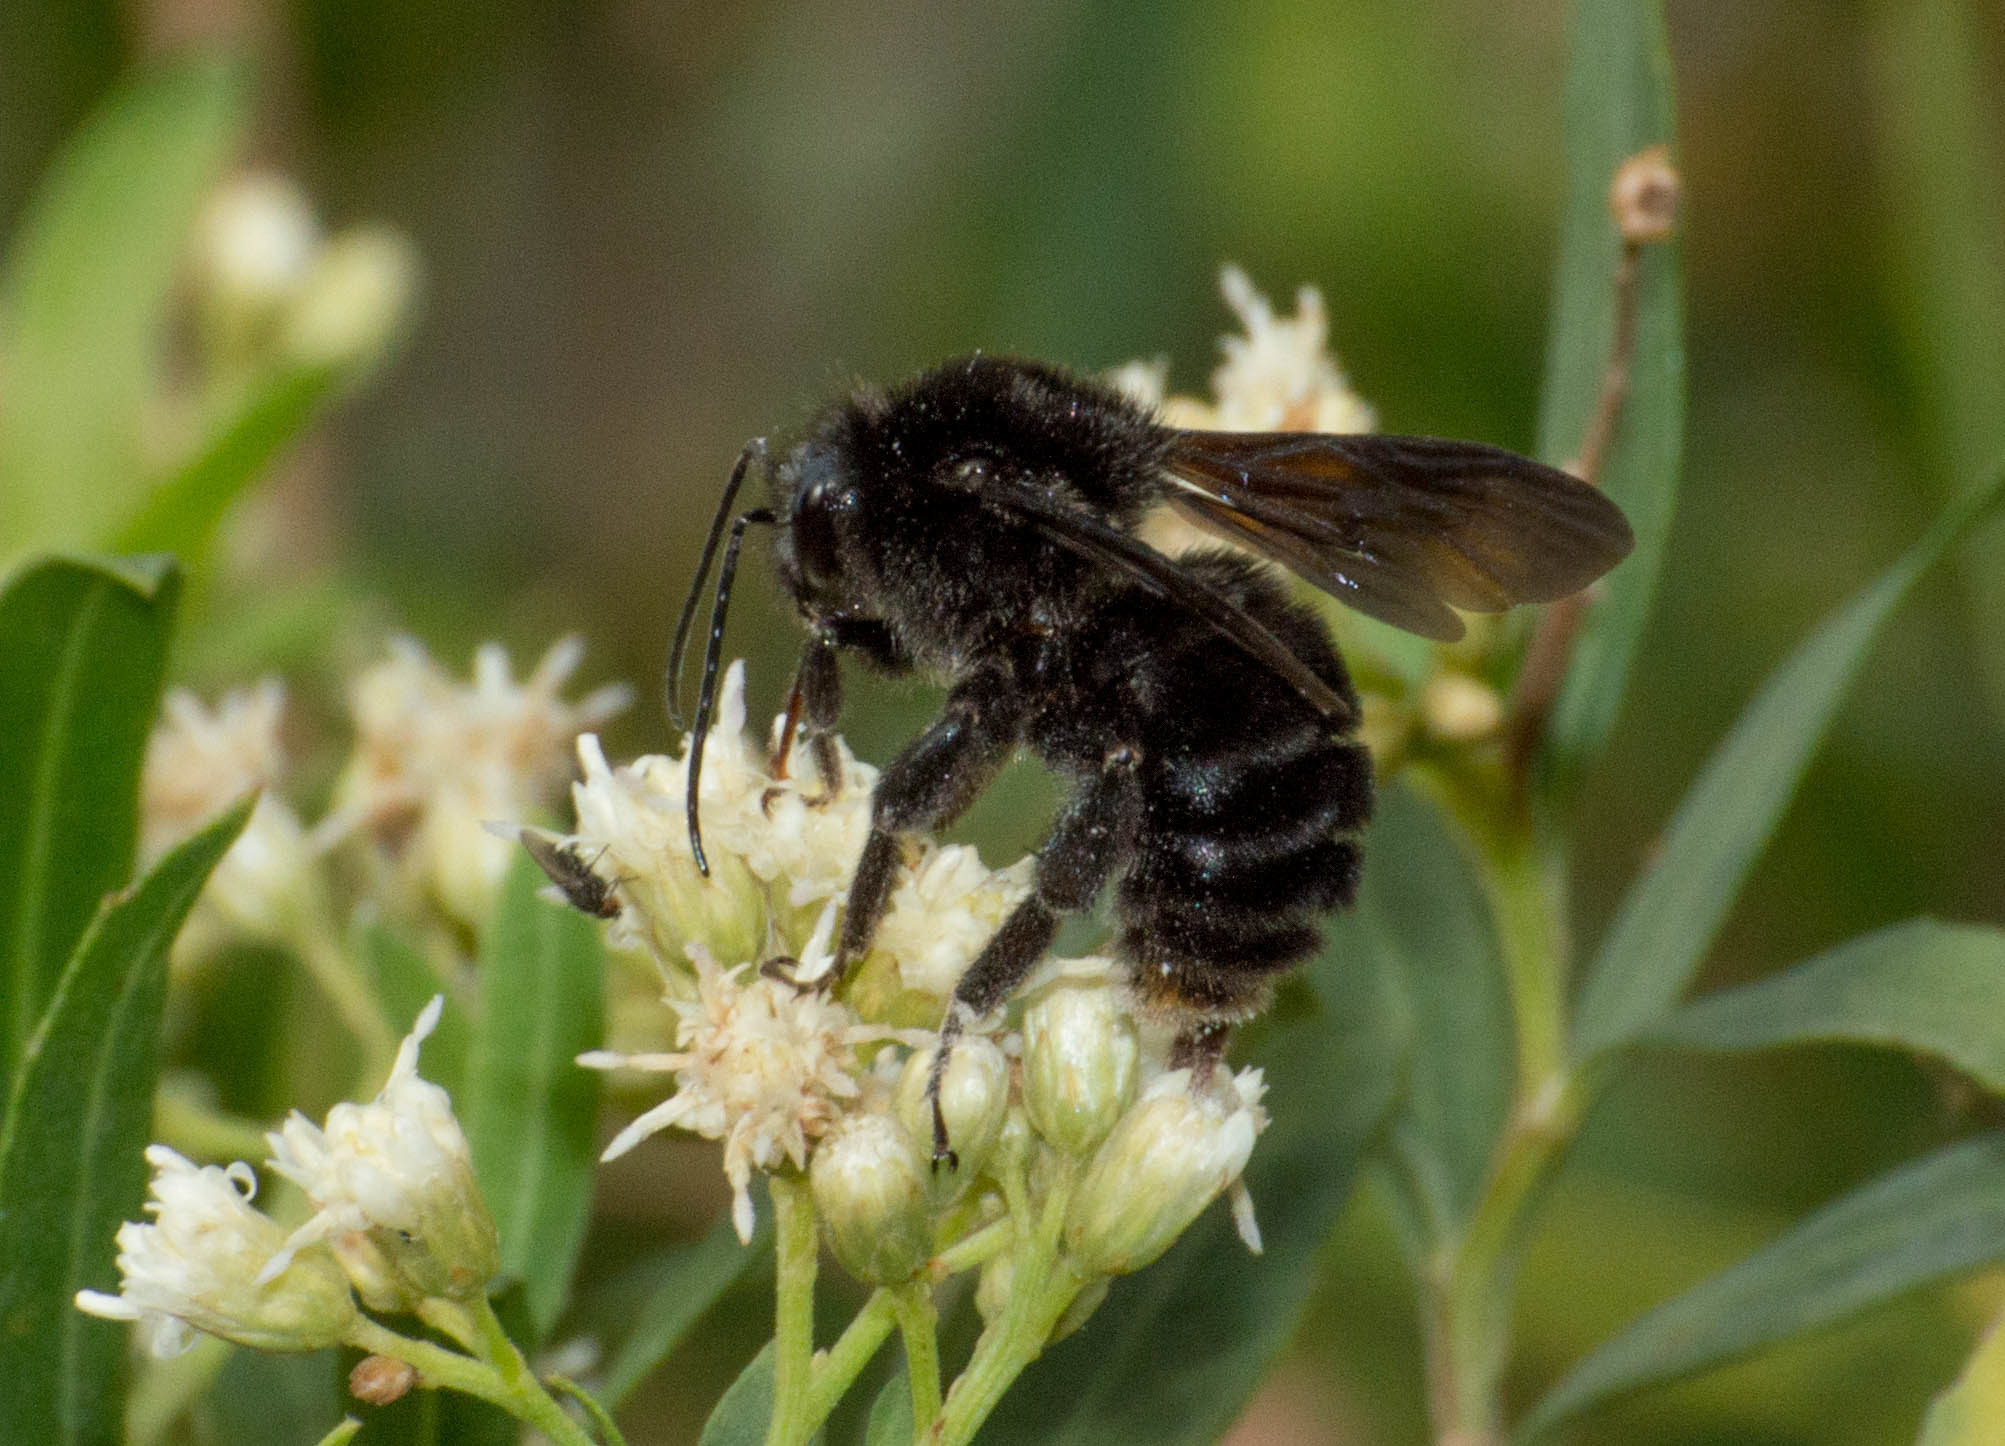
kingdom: Animalia
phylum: Arthropoda
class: Insecta
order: Hymenoptera
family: Apidae
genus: Bombus
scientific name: Bombus pauloensis
